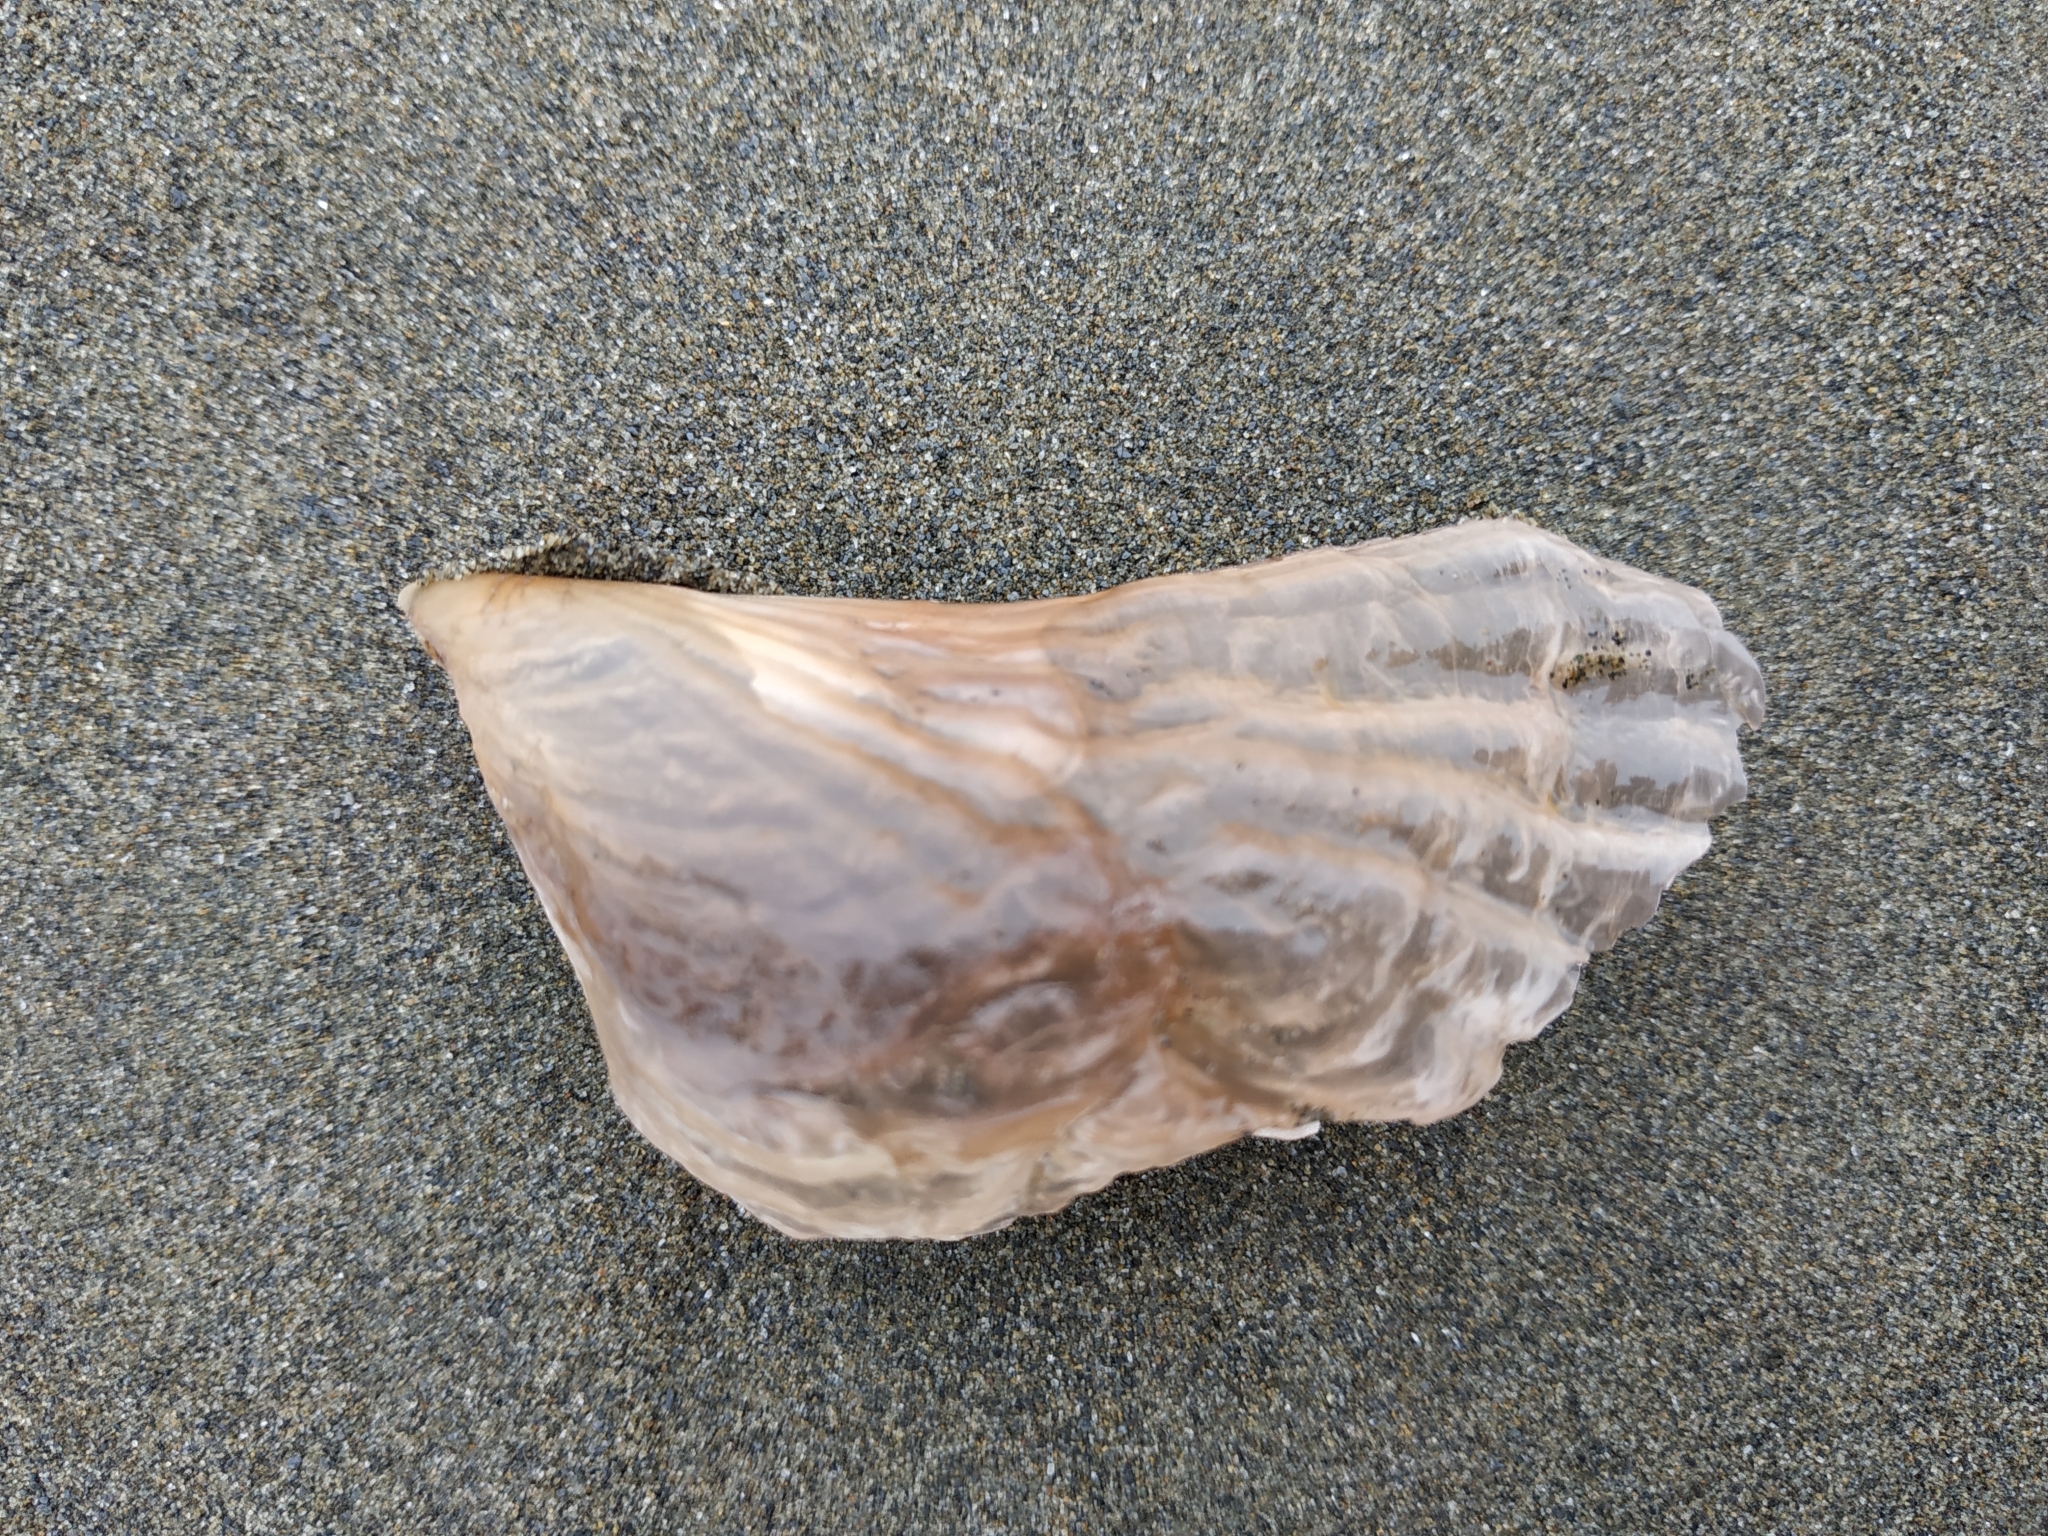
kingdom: Animalia
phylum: Mollusca
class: Bivalvia
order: Ostreida
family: Pinnidae
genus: Streptopinna
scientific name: Streptopinna saccata
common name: Baggy pen shell
